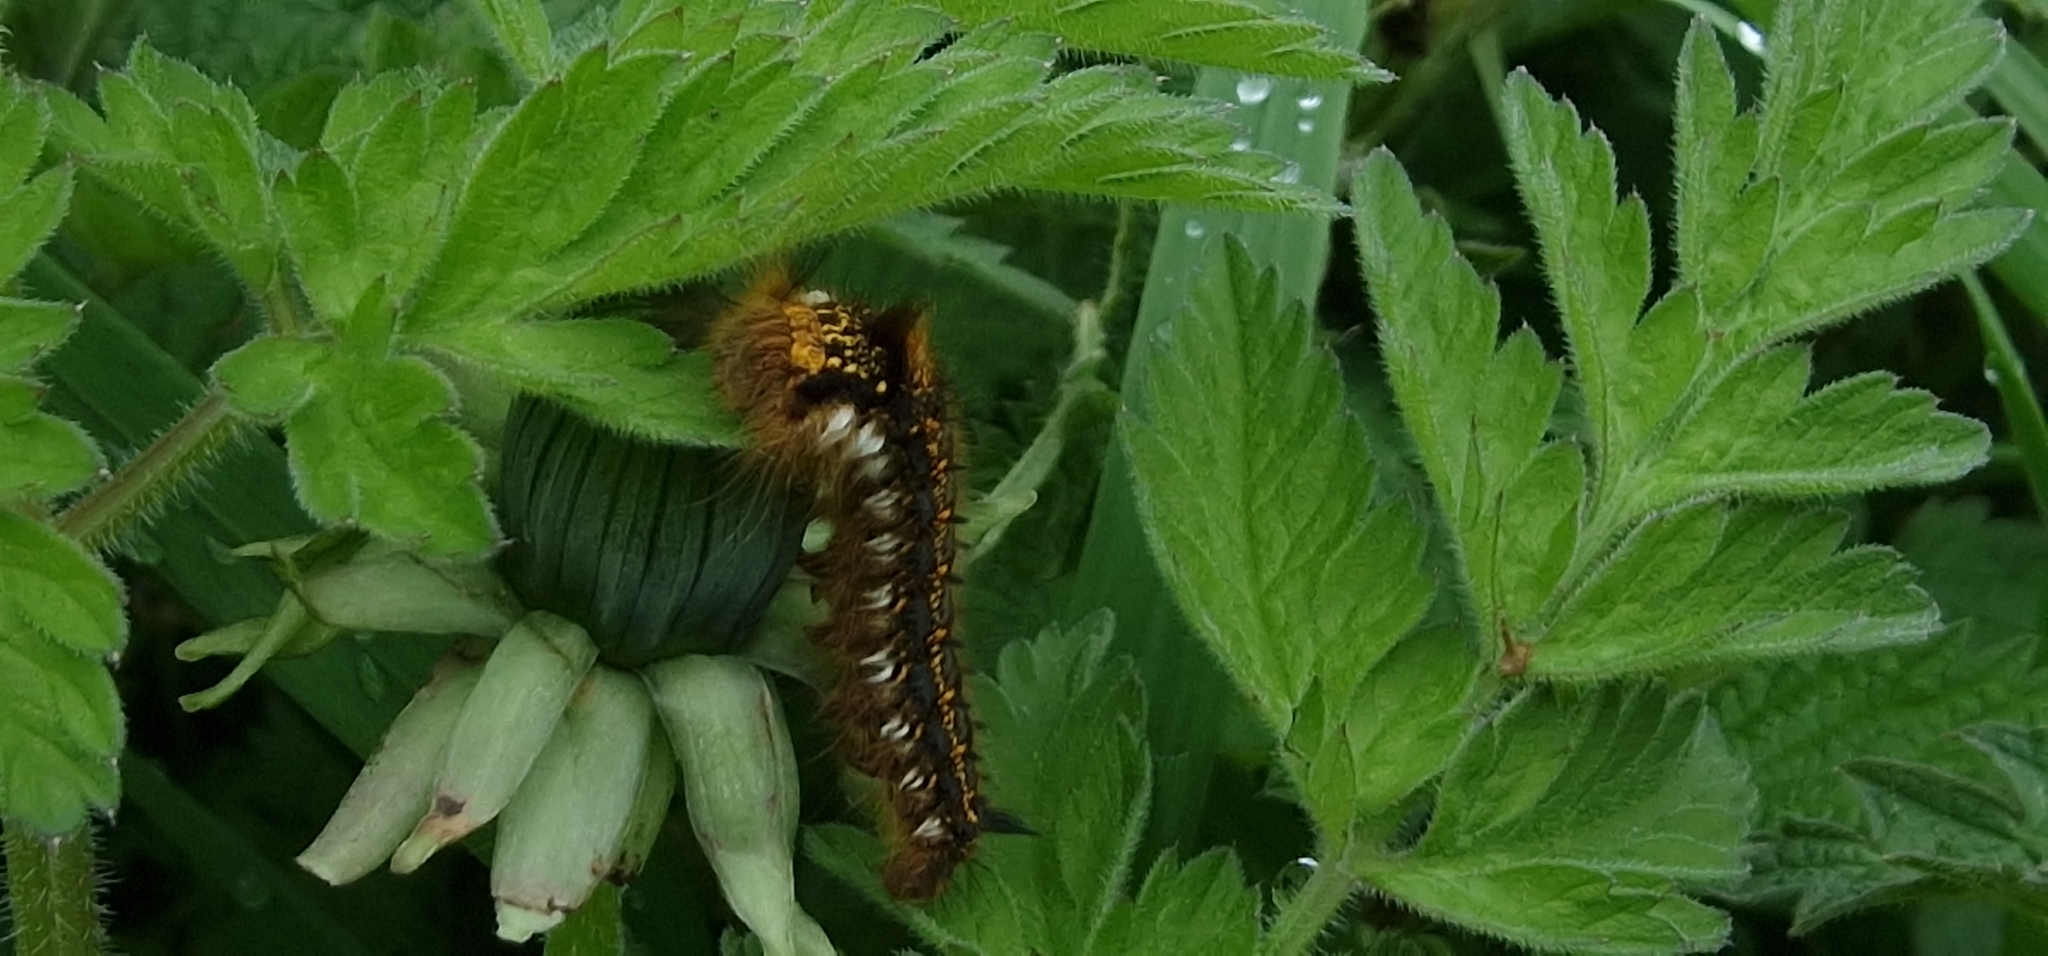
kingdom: Animalia
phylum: Arthropoda
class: Insecta
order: Lepidoptera
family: Lasiocampidae
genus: Euthrix
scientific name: Euthrix potatoria
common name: Drinker
